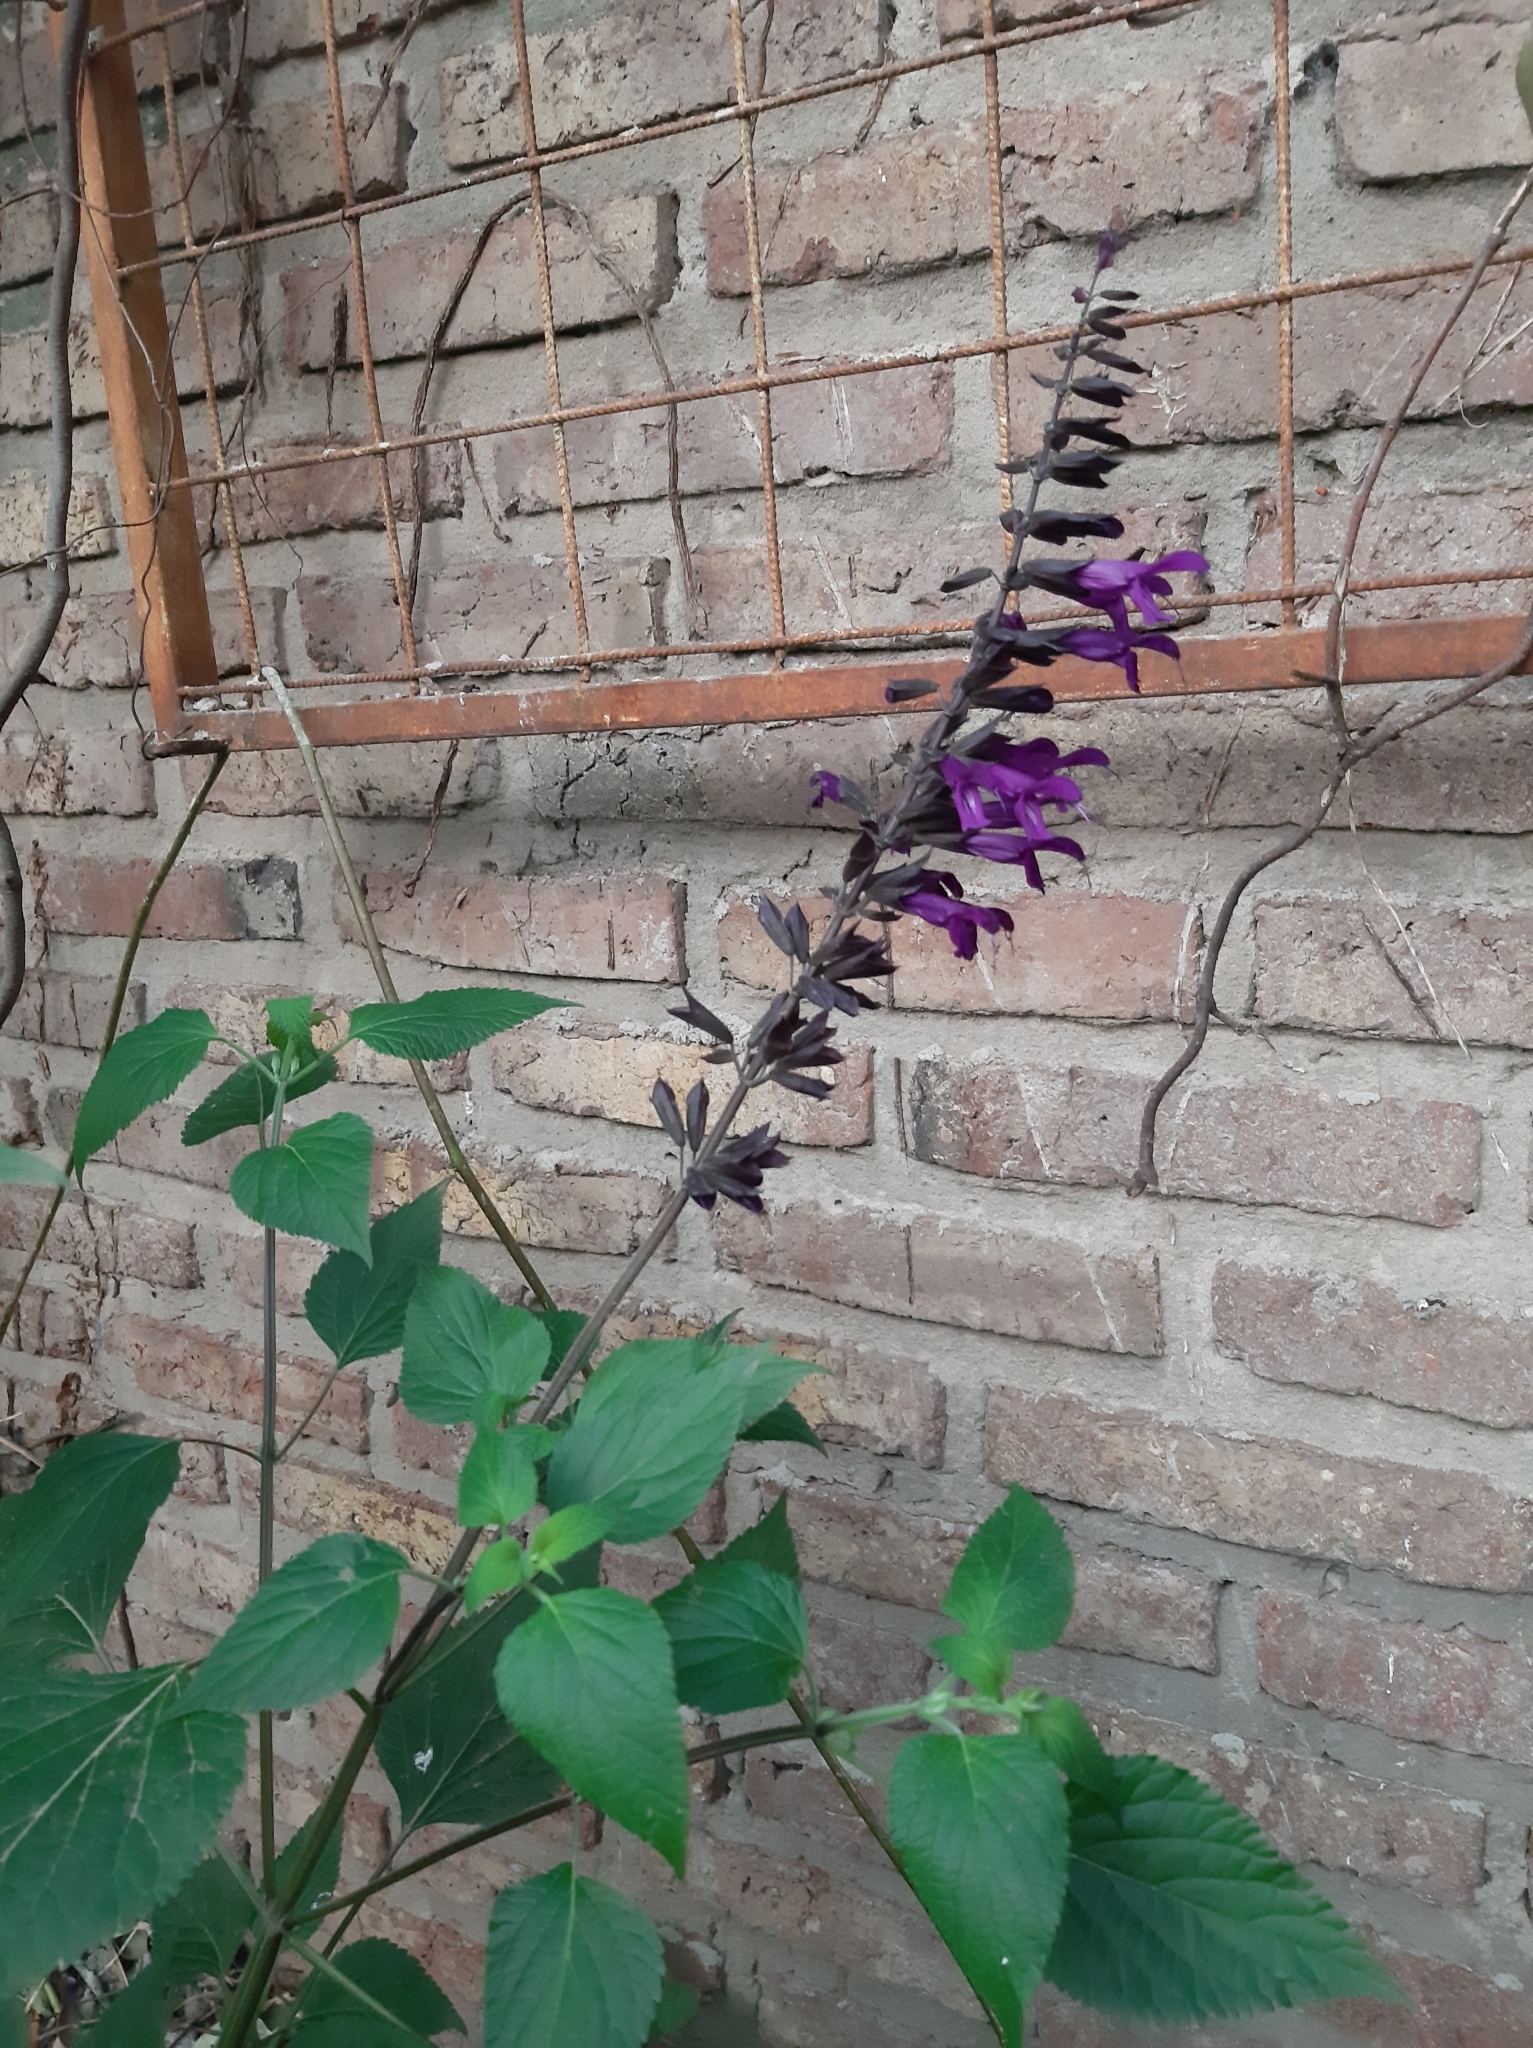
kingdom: Plantae
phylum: Tracheophyta
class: Magnoliopsida
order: Lamiales
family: Lamiaceae
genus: Salvia
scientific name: Salvia guaranitica
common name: Anise-scented sage
